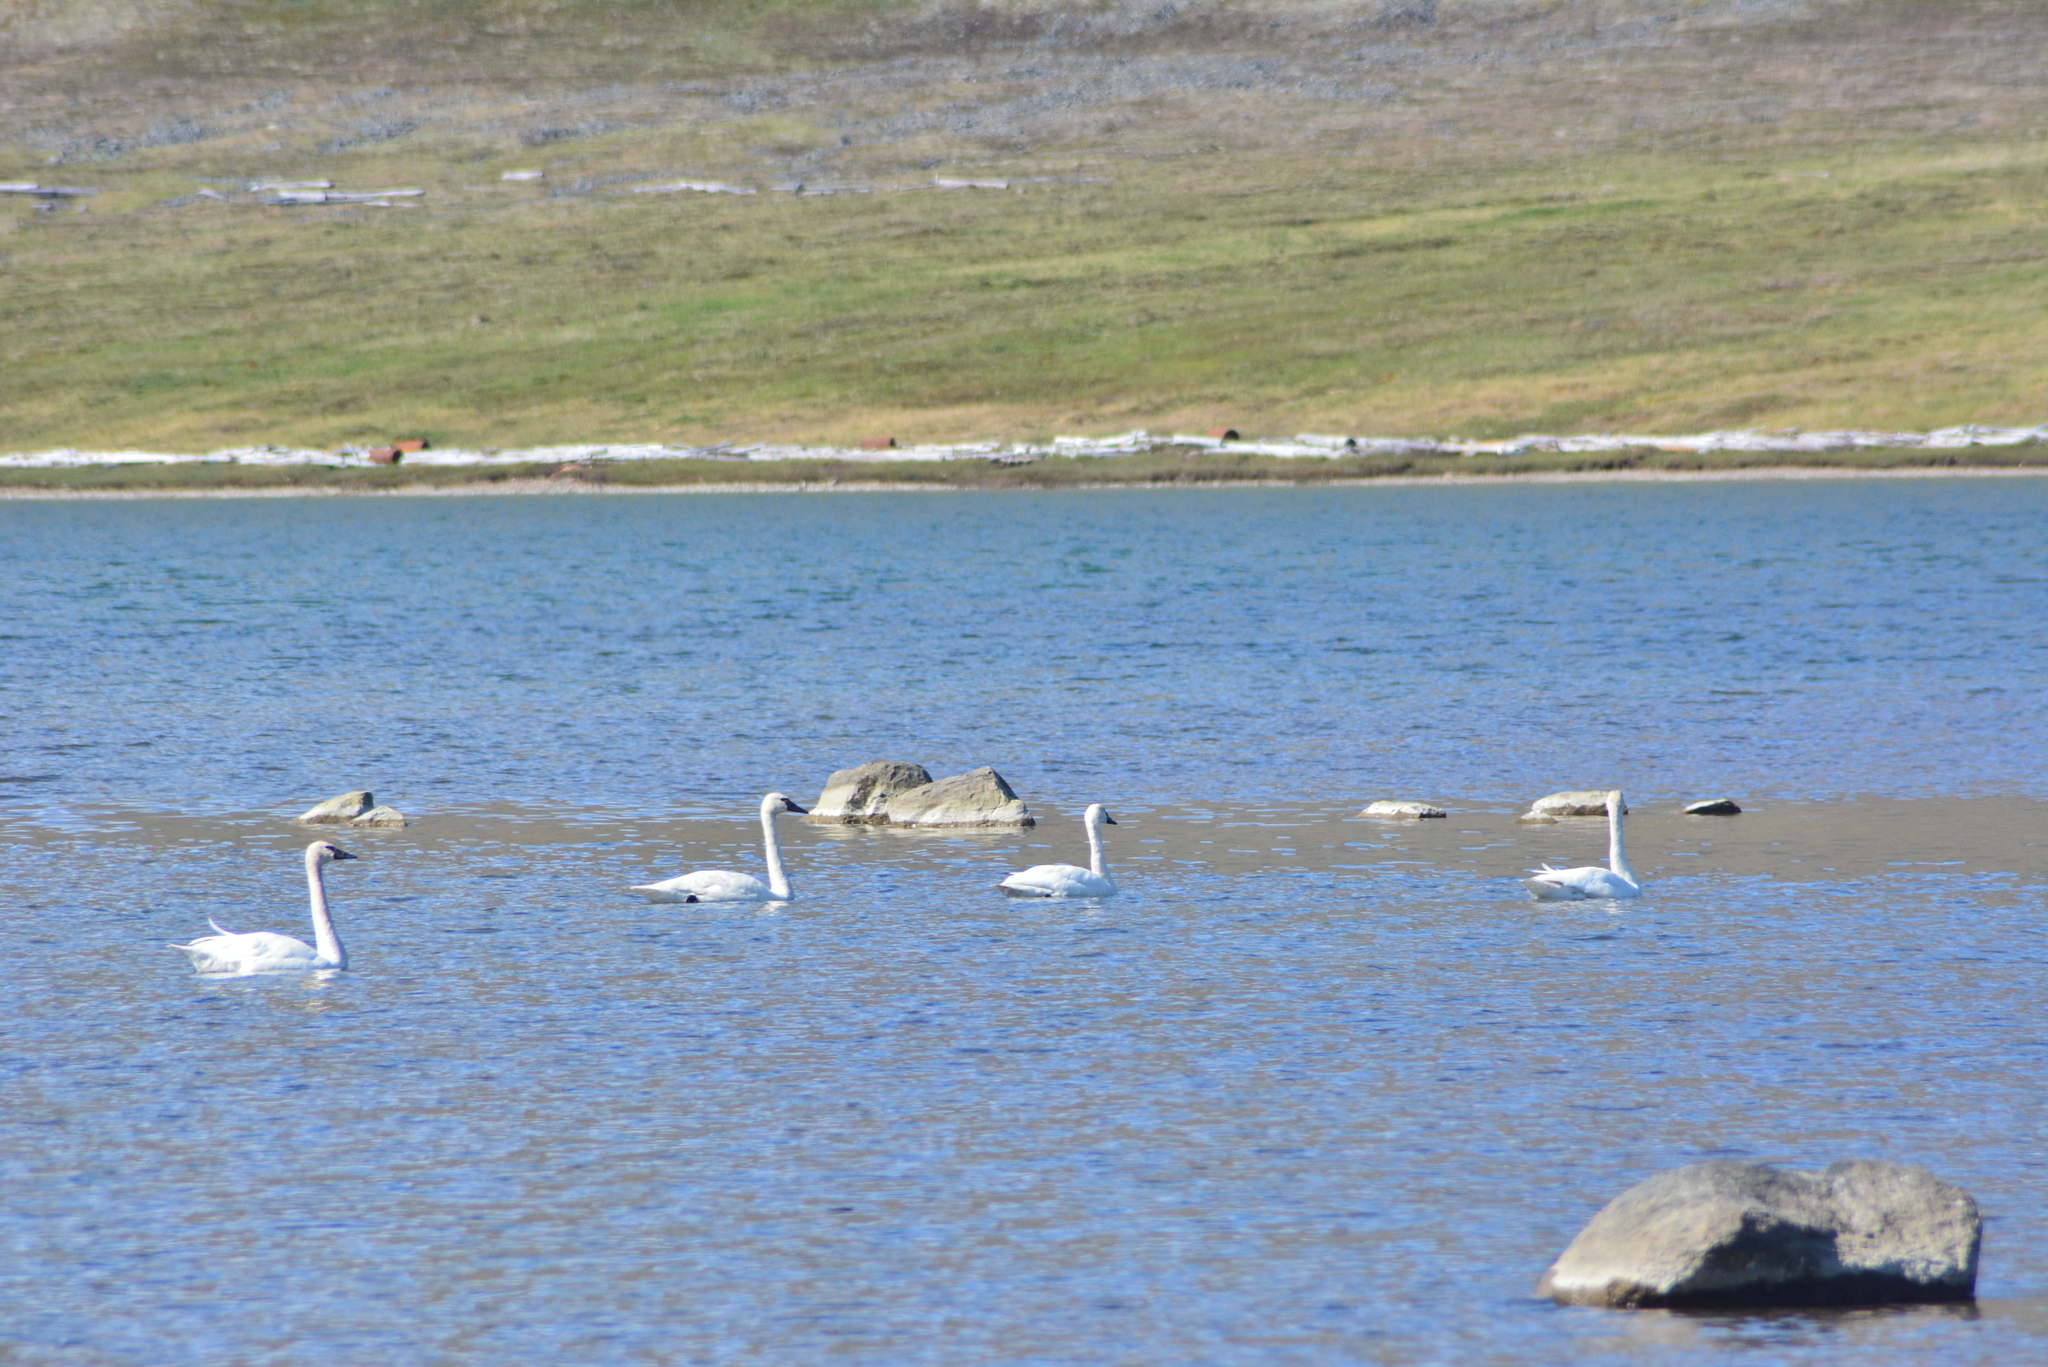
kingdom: Animalia
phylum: Chordata
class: Aves
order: Anseriformes
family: Anatidae
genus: Cygnus
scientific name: Cygnus columbianus
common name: Tundra swan
